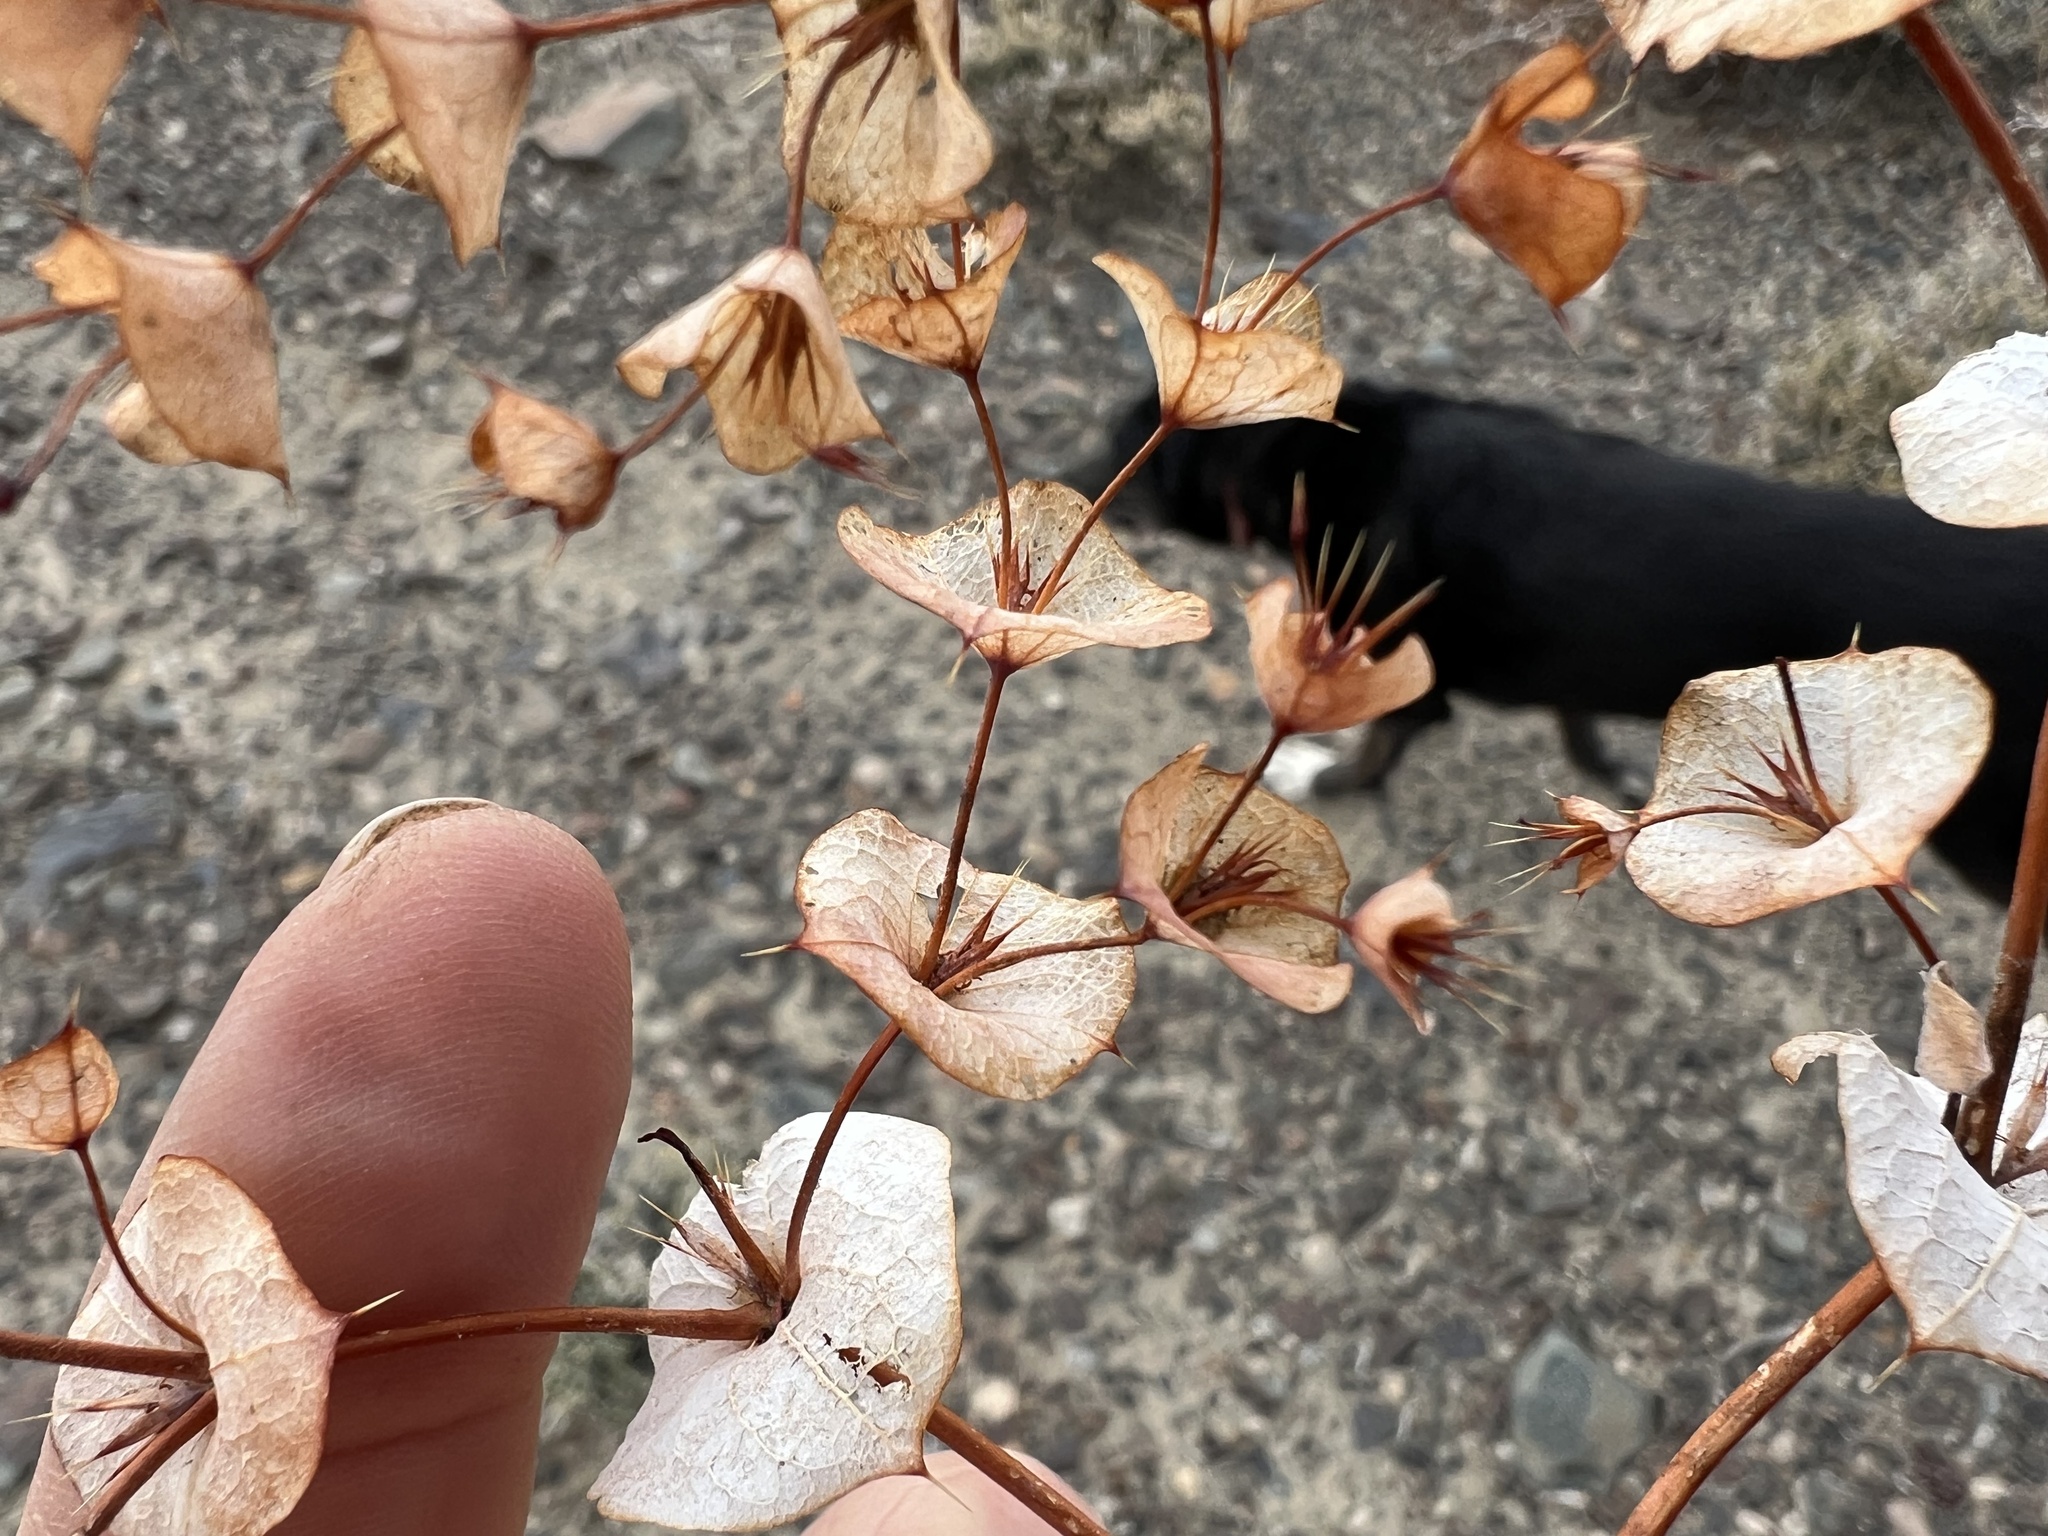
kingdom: Plantae
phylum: Tracheophyta
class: Magnoliopsida
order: Caryophyllales
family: Polygonaceae
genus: Oxytheca
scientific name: Oxytheca perfoliata
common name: Round-leaf puncturebract
